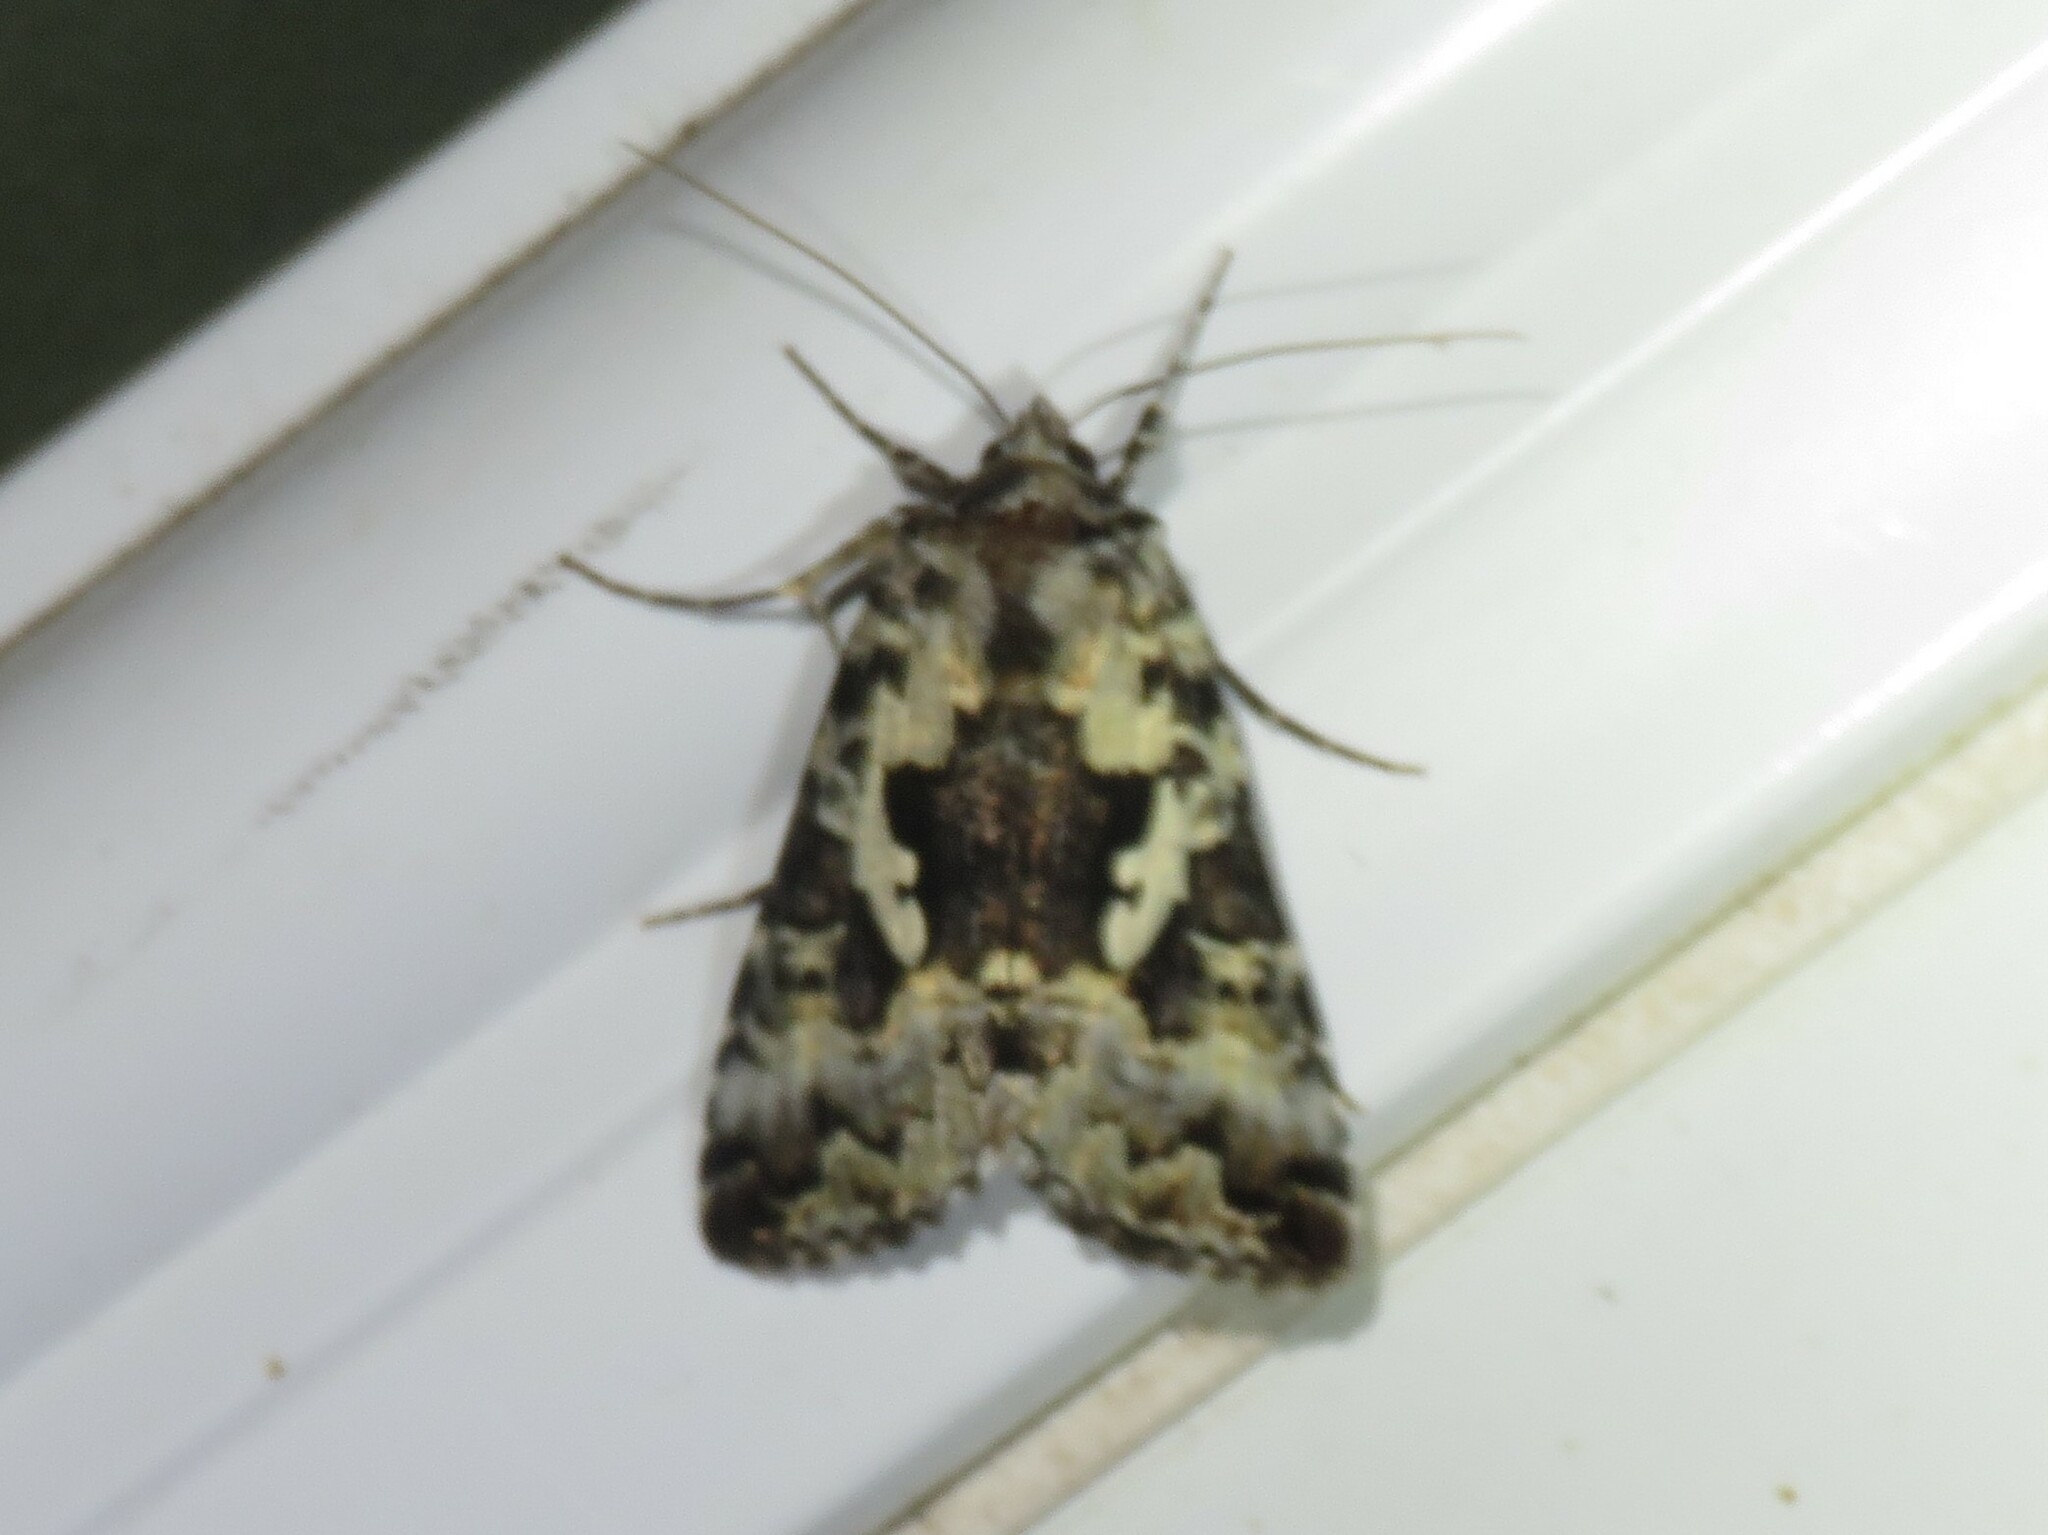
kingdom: Animalia
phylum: Arthropoda
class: Insecta
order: Lepidoptera
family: Noctuidae
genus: Syngrapha
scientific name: Syngrapha rectangula
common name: Angulated cutworm
